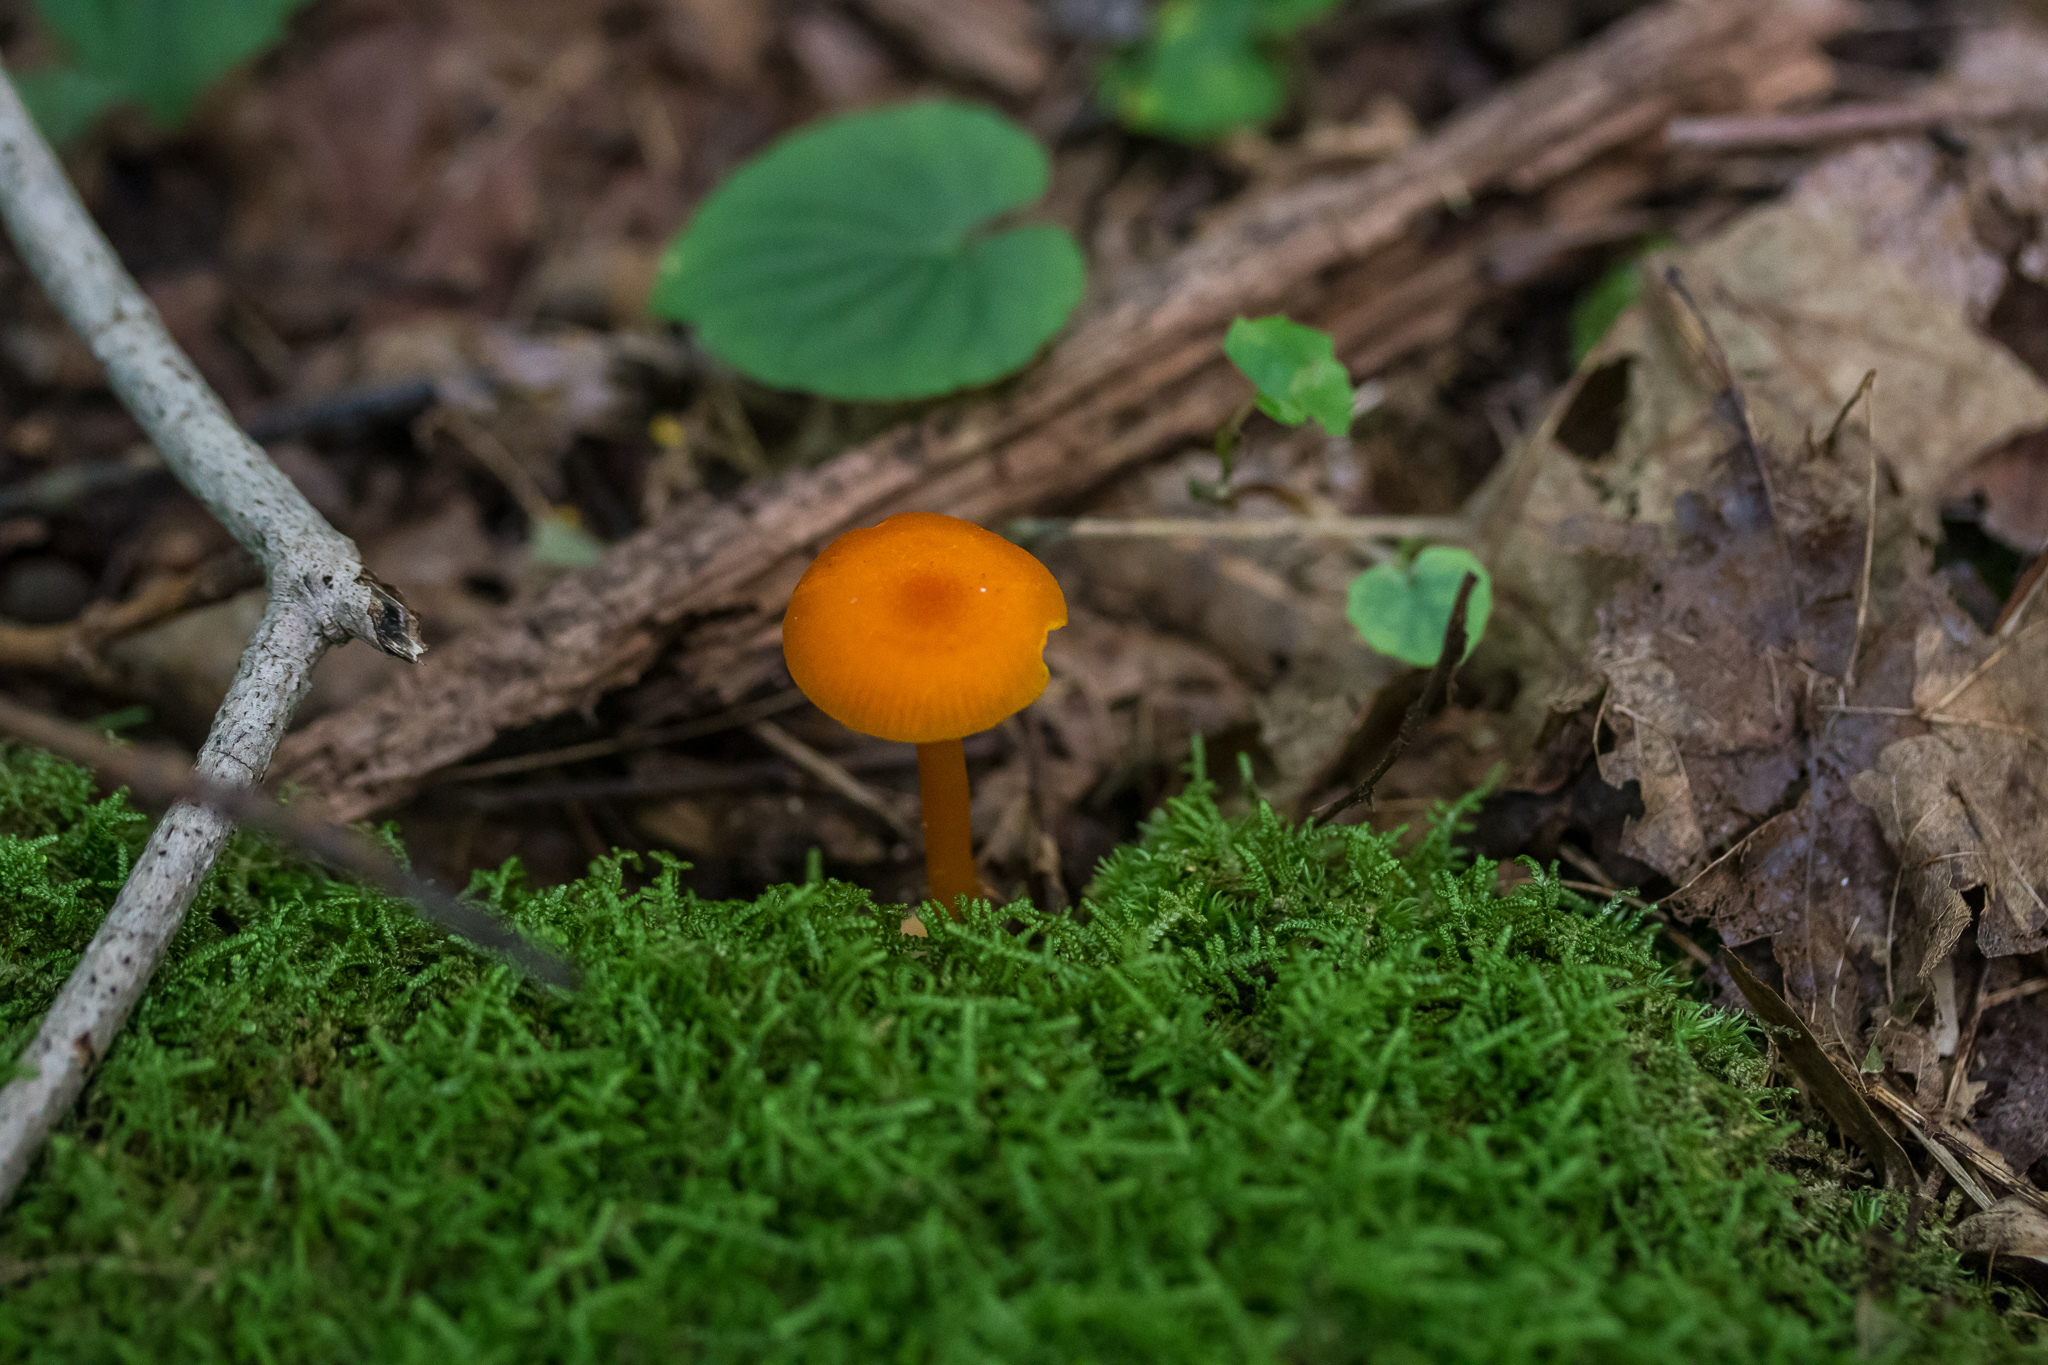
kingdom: Fungi
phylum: Basidiomycota
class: Agaricomycetes
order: Agaricales
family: Hygrophoraceae
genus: Hygrocybe
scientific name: Hygrocybe miniata
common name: Vermilion waxcap
